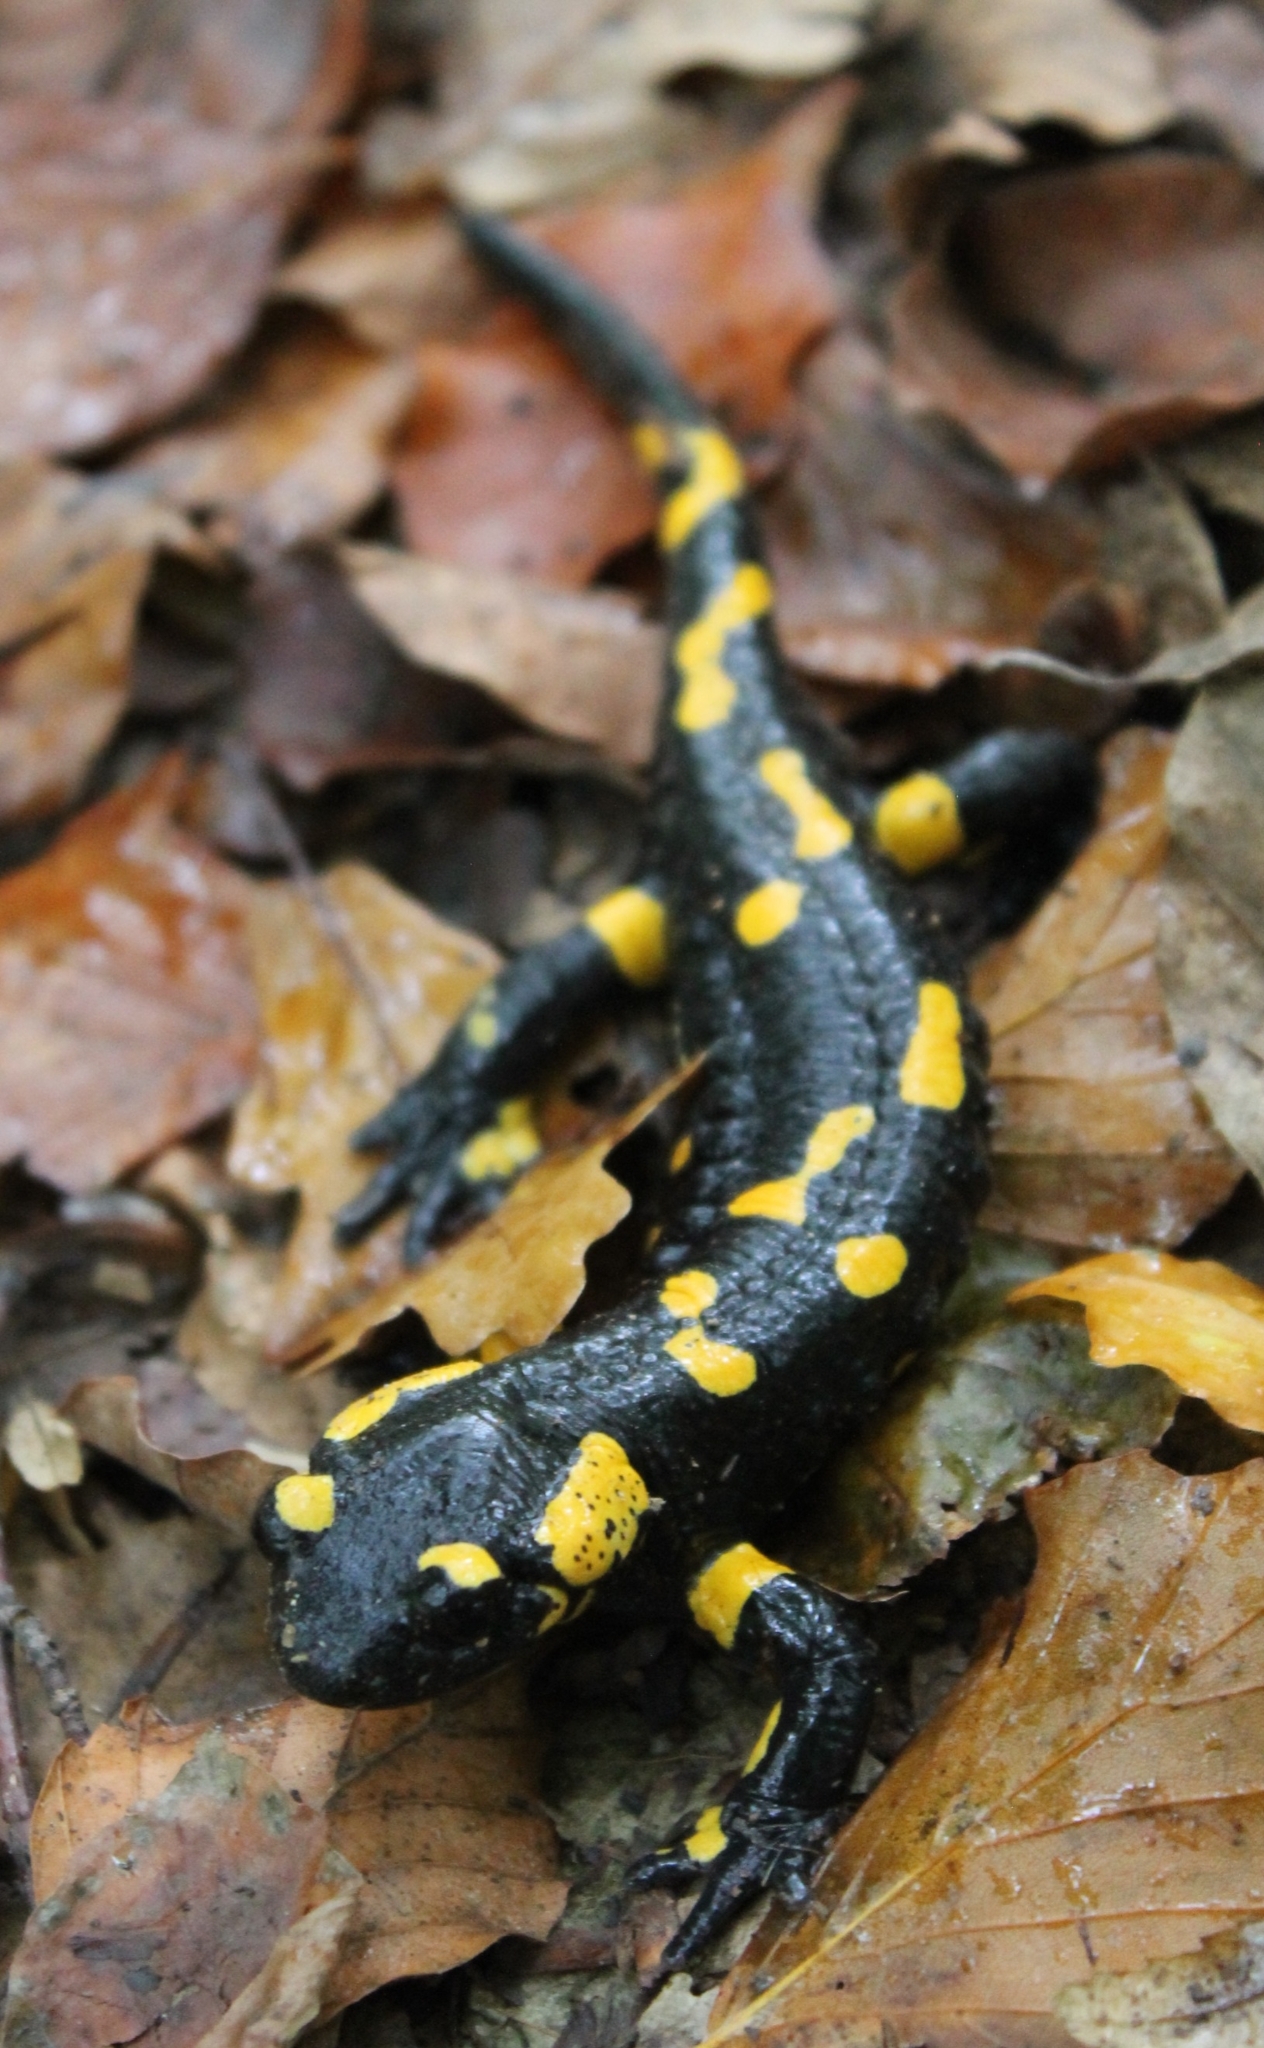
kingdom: Animalia
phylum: Chordata
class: Amphibia
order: Caudata
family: Salamandridae
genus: Salamandra
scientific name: Salamandra salamandra
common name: Fire salamander
